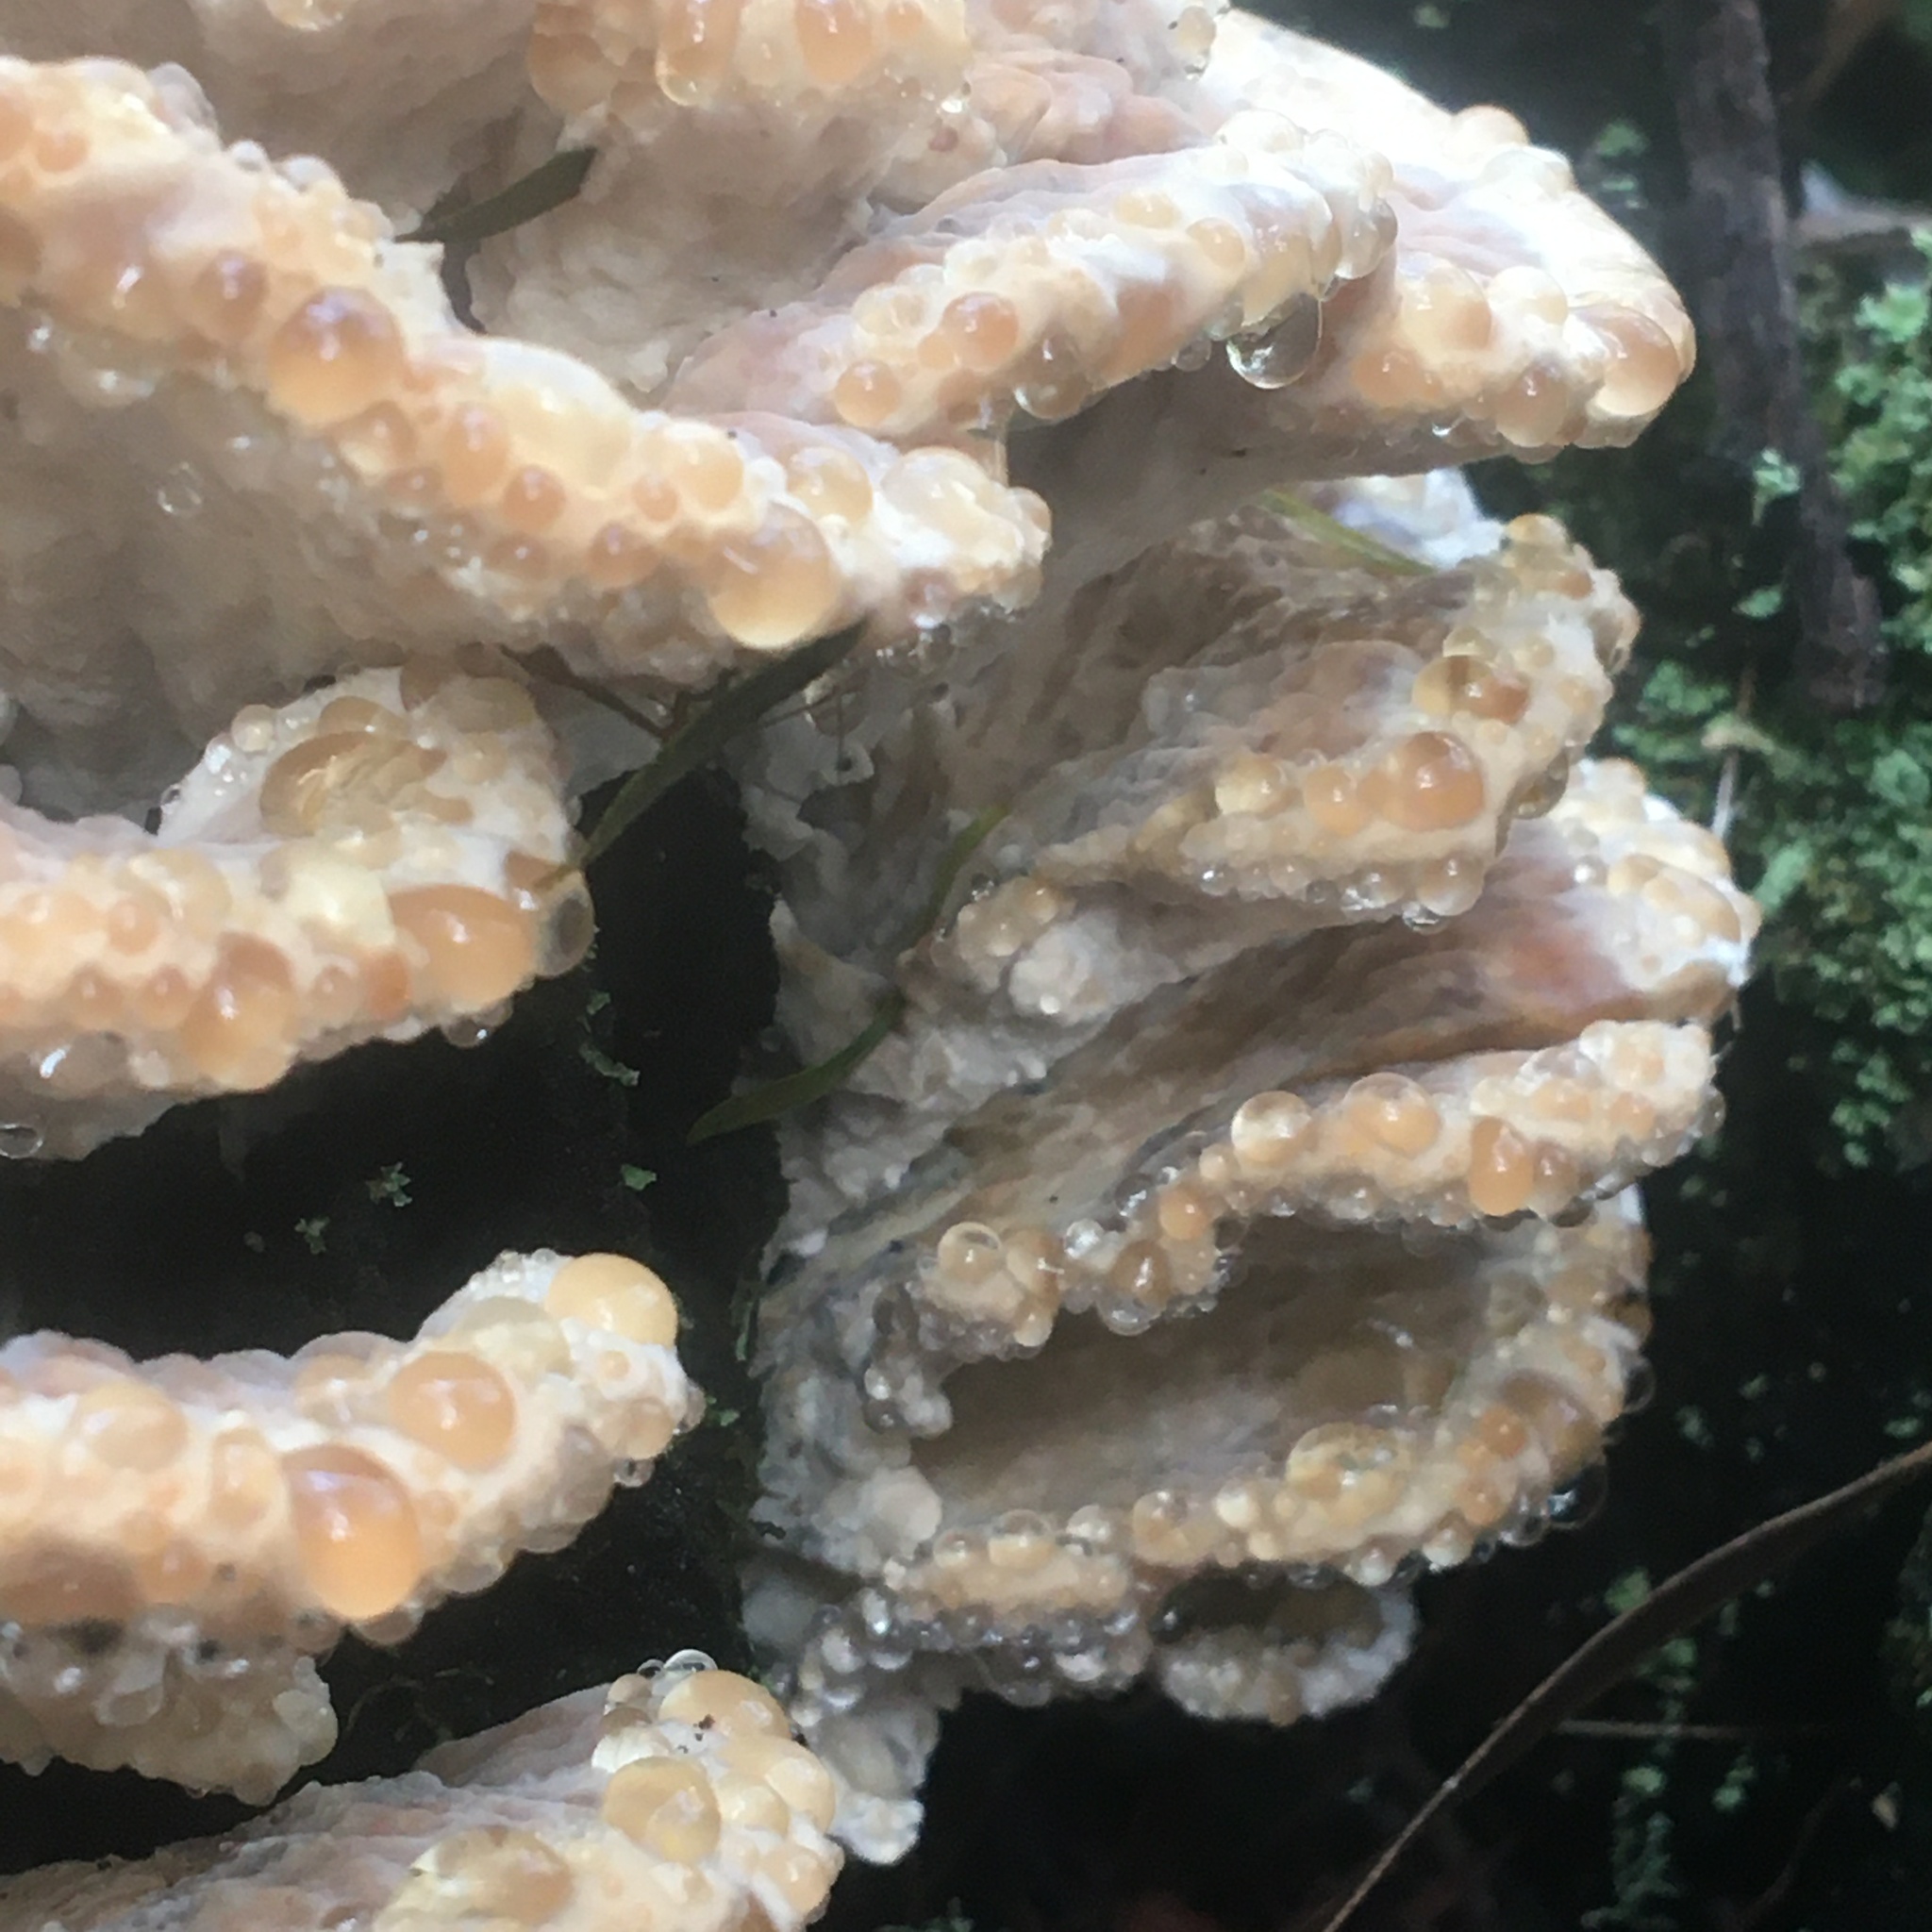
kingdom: Fungi
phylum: Basidiomycota
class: Agaricomycetes
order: Polyporales
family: Polyporaceae
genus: Ryvardenia
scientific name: Ryvardenia campyla
